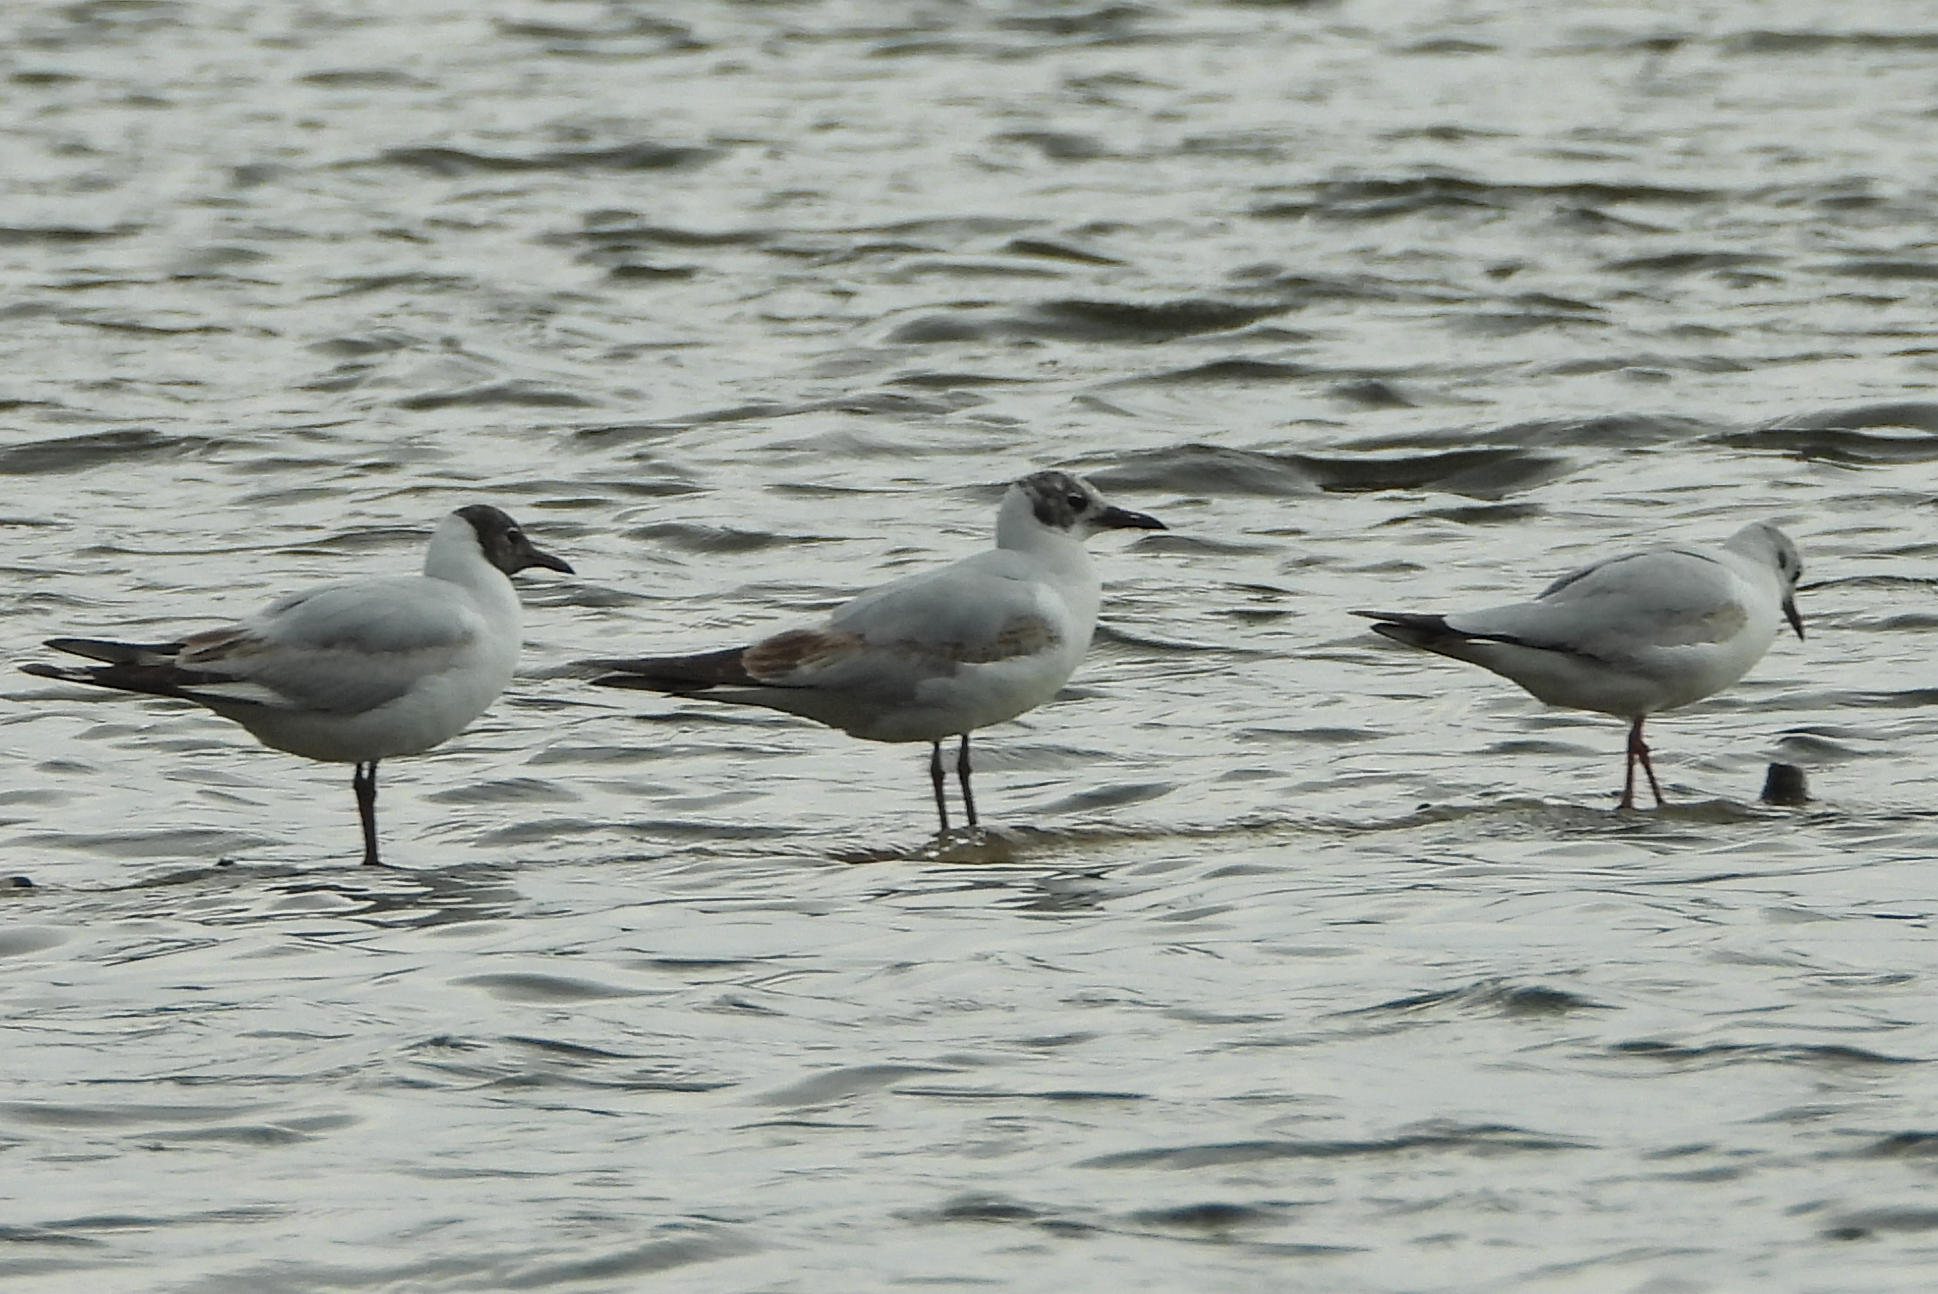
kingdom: Animalia
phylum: Chordata
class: Aves
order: Charadriiformes
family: Laridae
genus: Chroicocephalus
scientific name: Chroicocephalus ridibundus
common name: Black-headed gull
